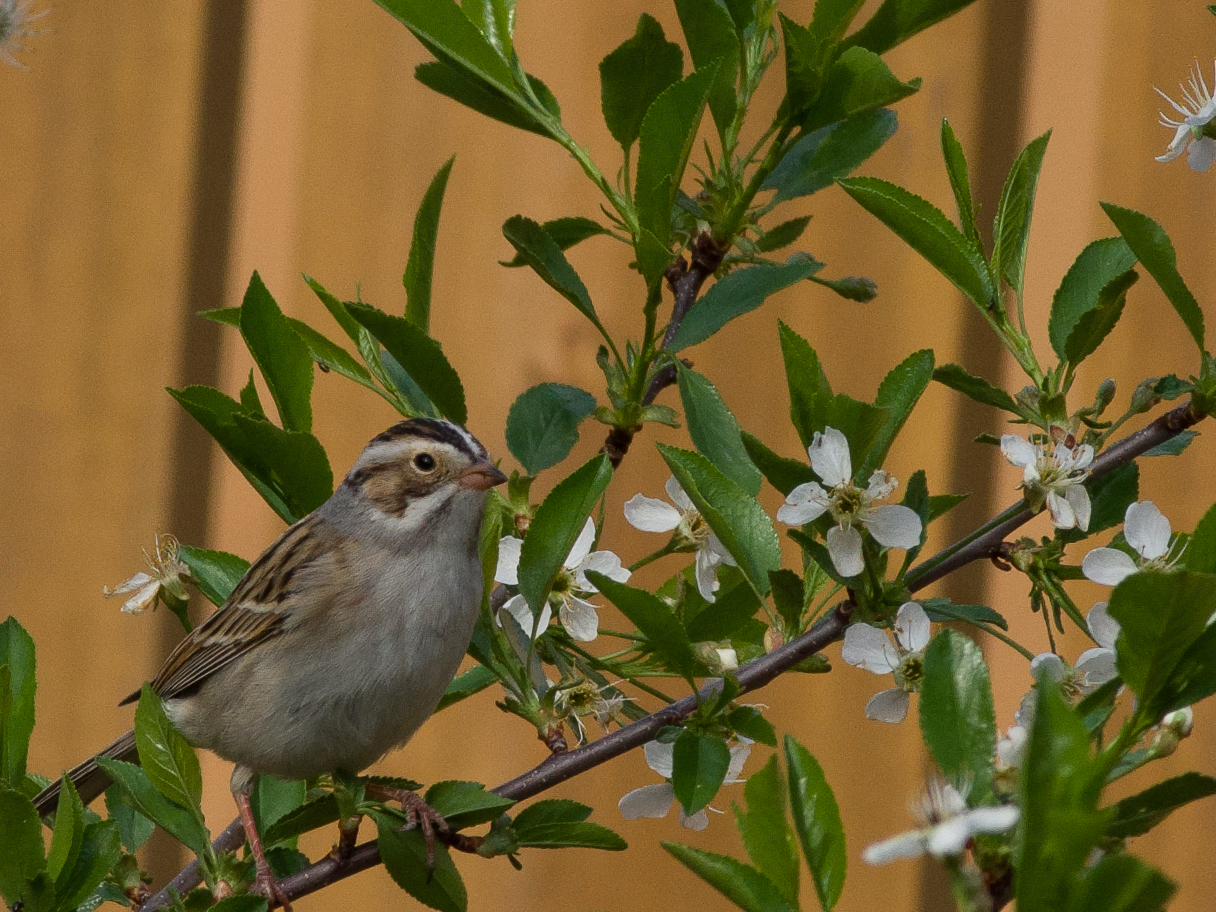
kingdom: Animalia
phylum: Chordata
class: Aves
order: Passeriformes
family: Passerellidae
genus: Spizella
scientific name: Spizella pallida
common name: Clay-colored sparrow
